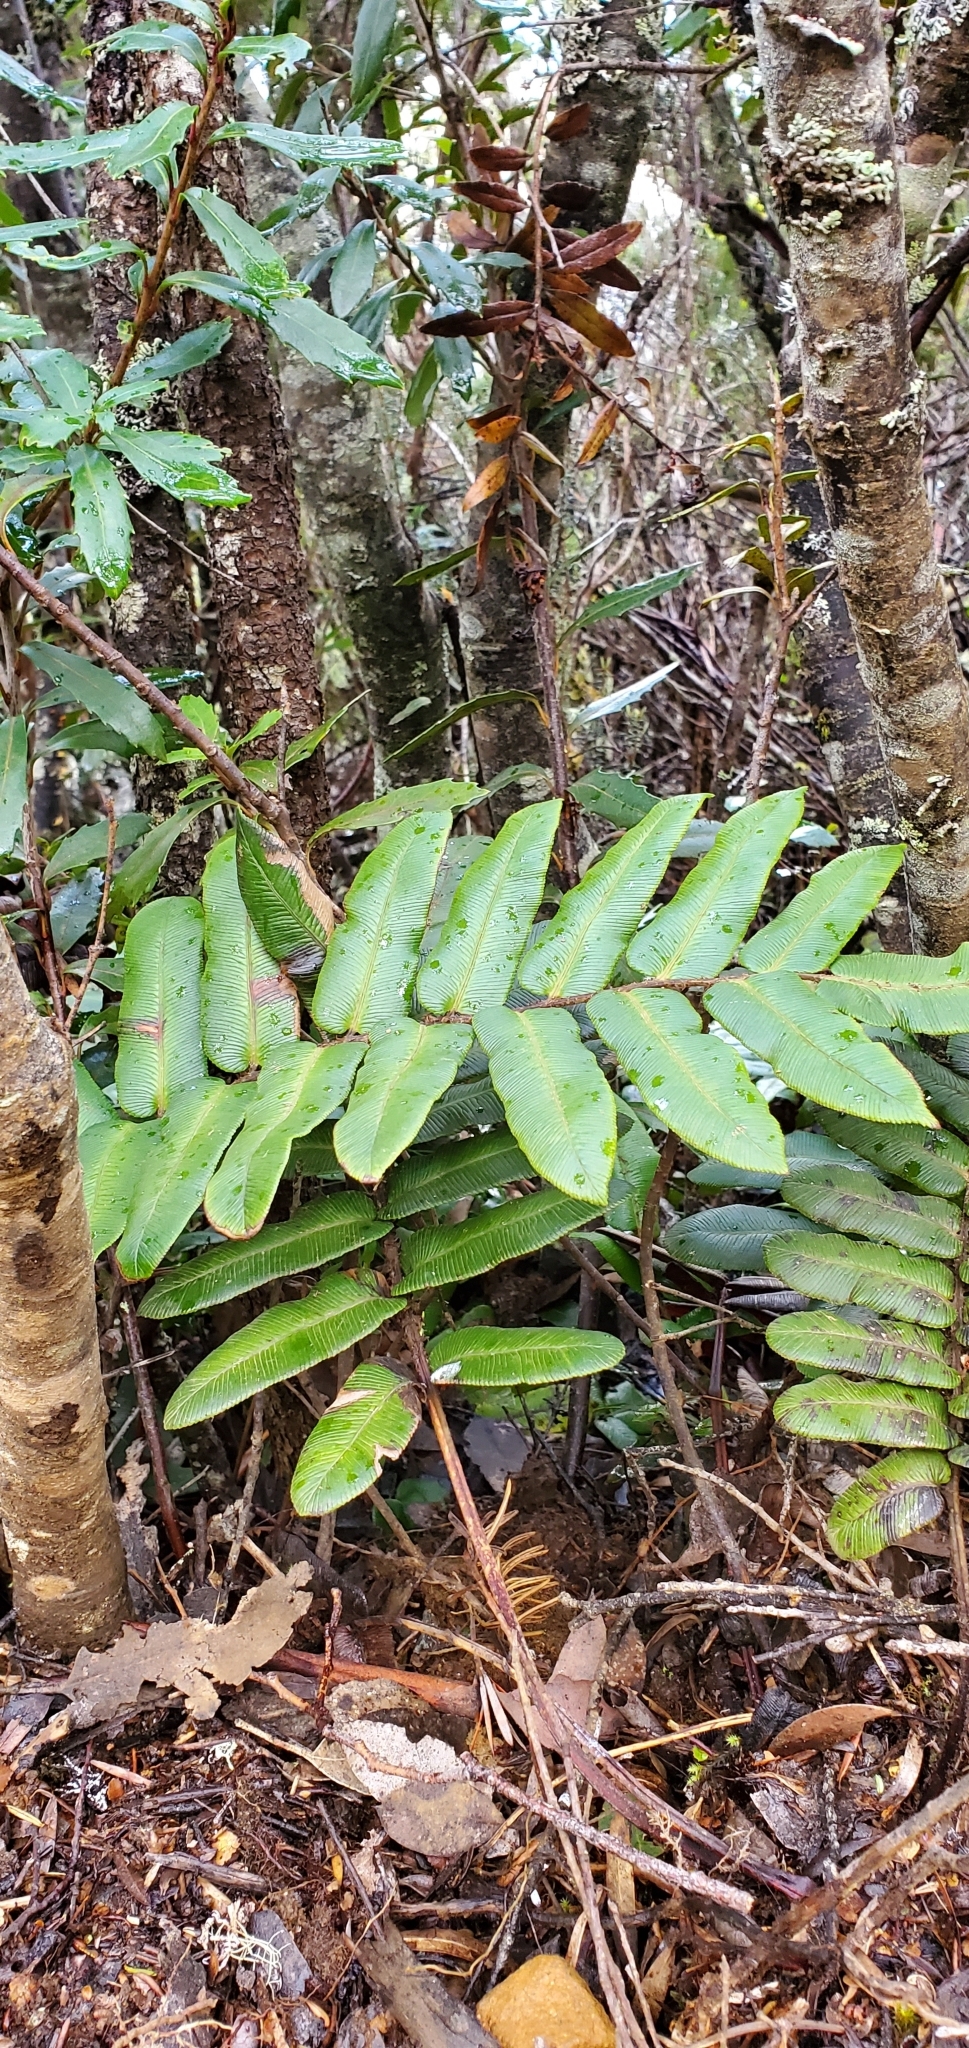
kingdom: Plantae
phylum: Tracheophyta
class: Polypodiopsida
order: Polypodiales
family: Blechnaceae
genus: Parablechnum
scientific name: Parablechnum wattsii
